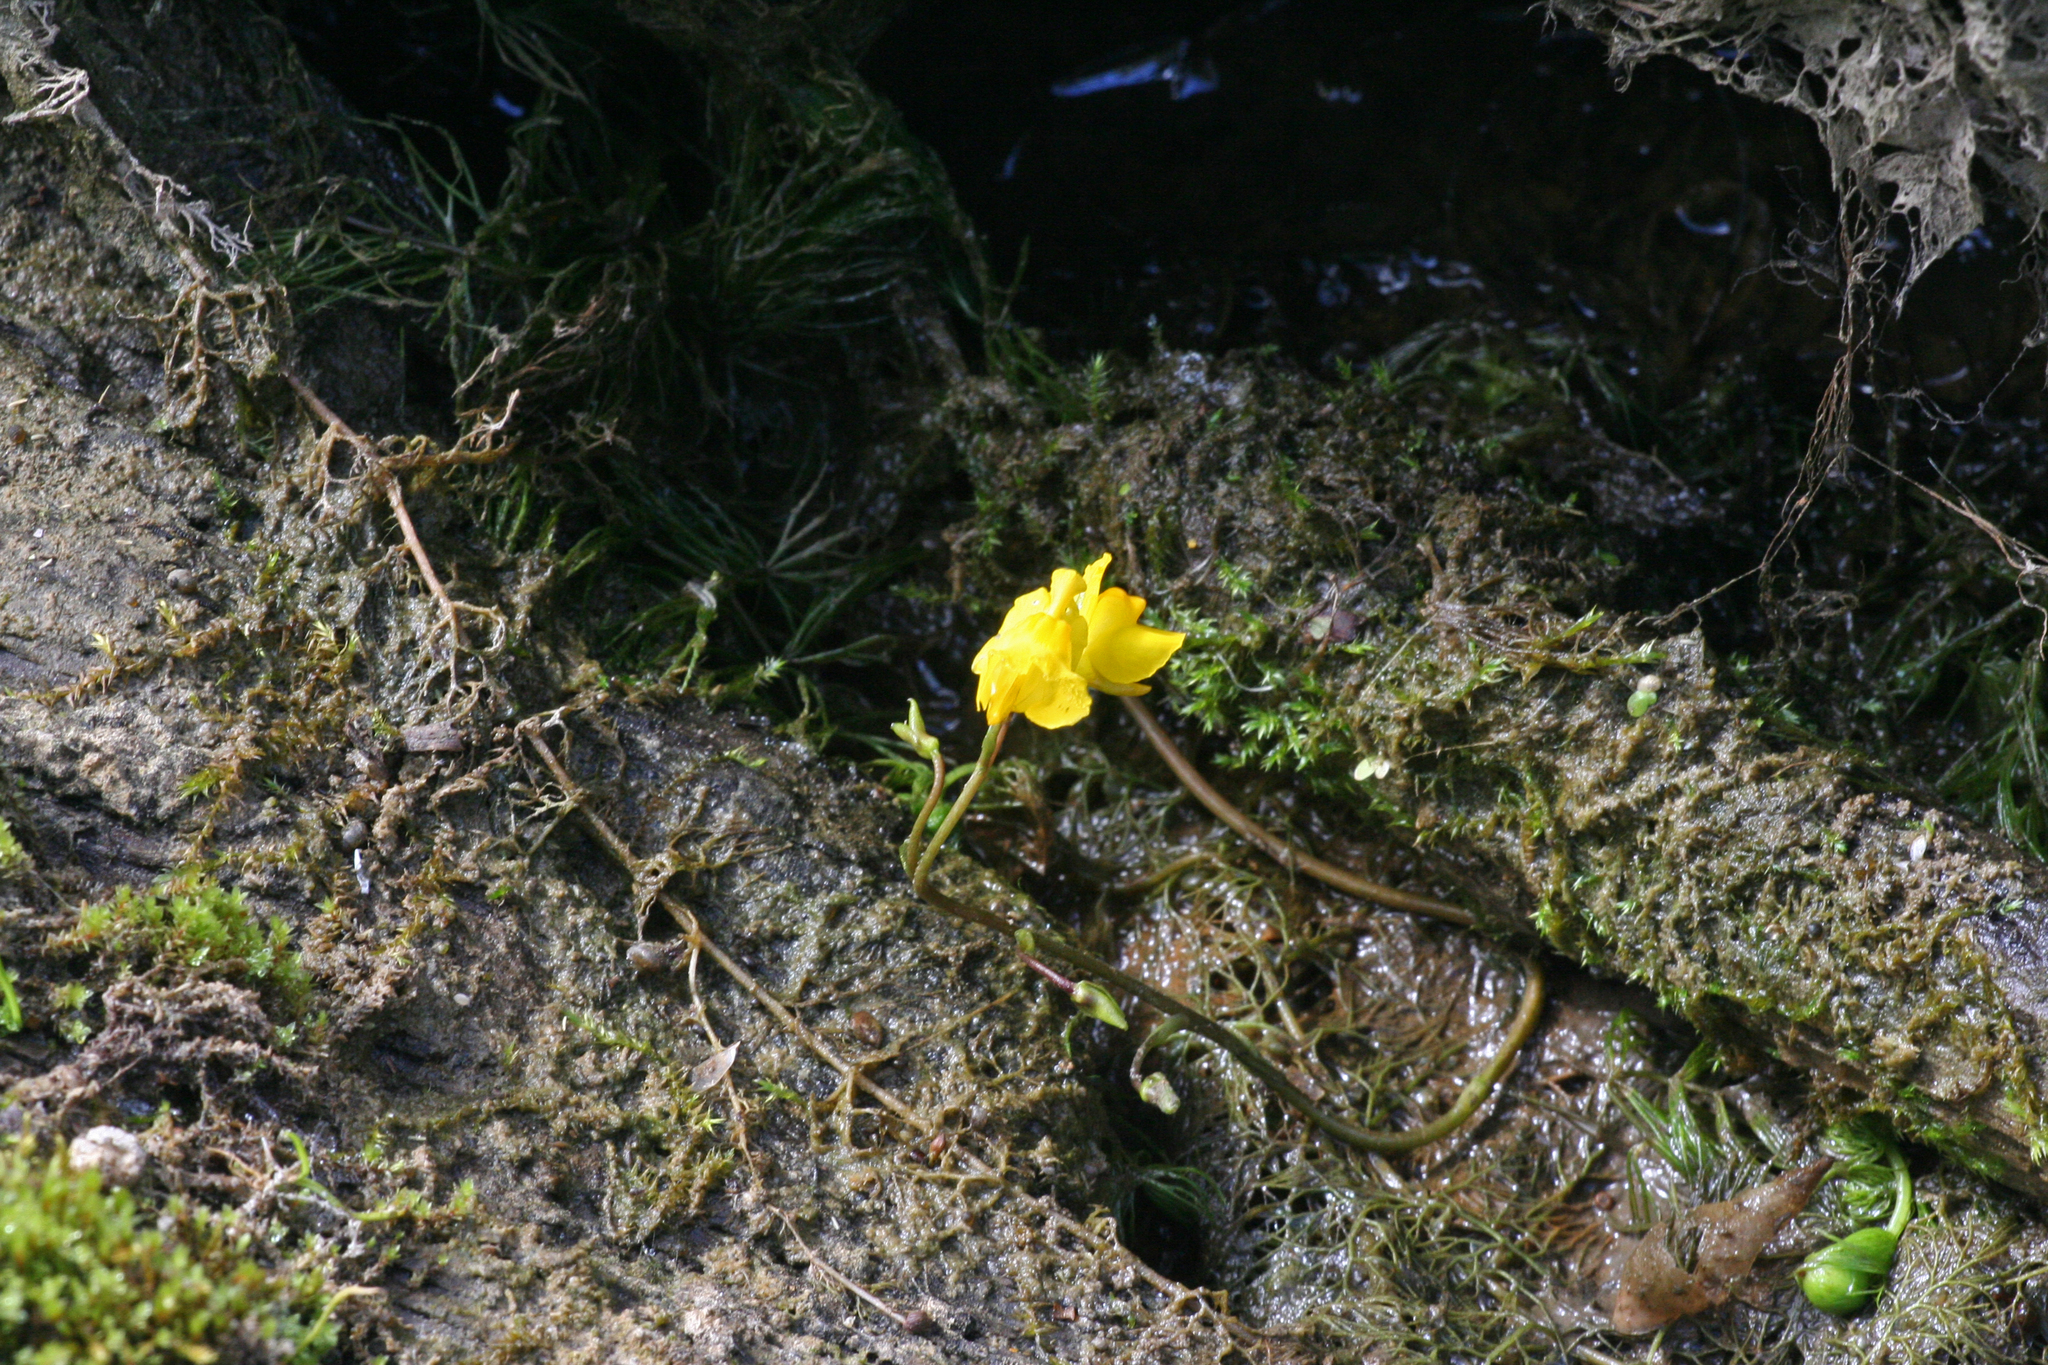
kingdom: Plantae
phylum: Tracheophyta
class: Magnoliopsida
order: Lamiales
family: Lentibulariaceae
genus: Utricularia
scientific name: Utricularia vulgaris
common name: Greater bladderwort
